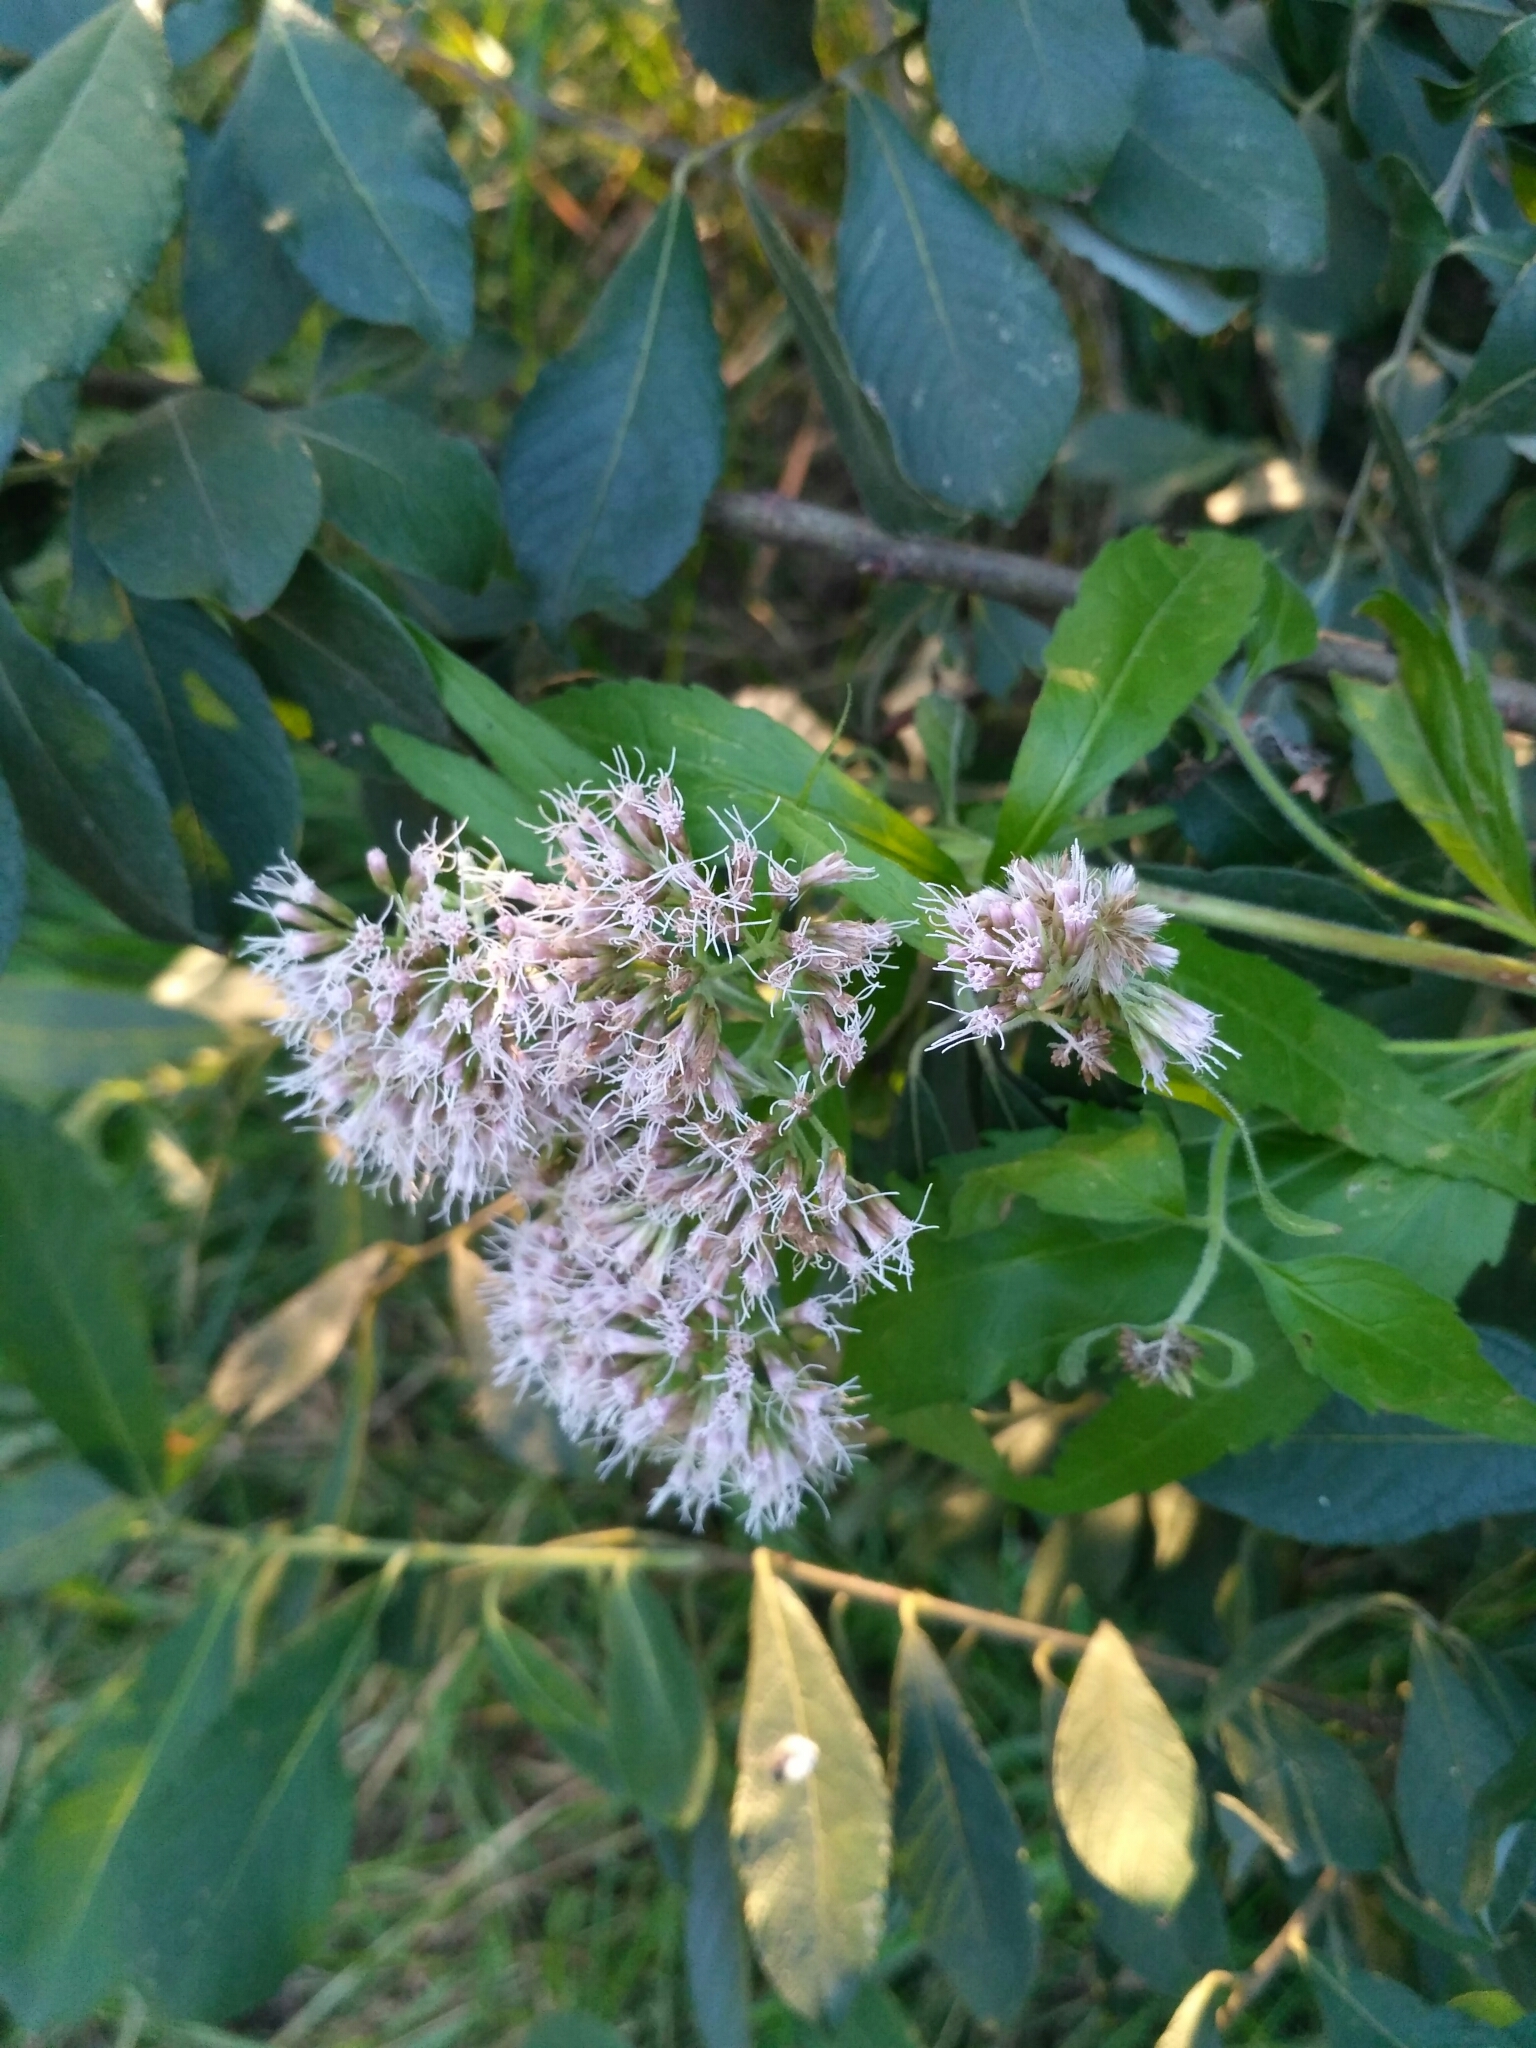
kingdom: Plantae
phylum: Tracheophyta
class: Magnoliopsida
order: Asterales
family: Asteraceae
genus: Eupatorium
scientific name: Eupatorium cannabinum
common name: Hemp-agrimony
